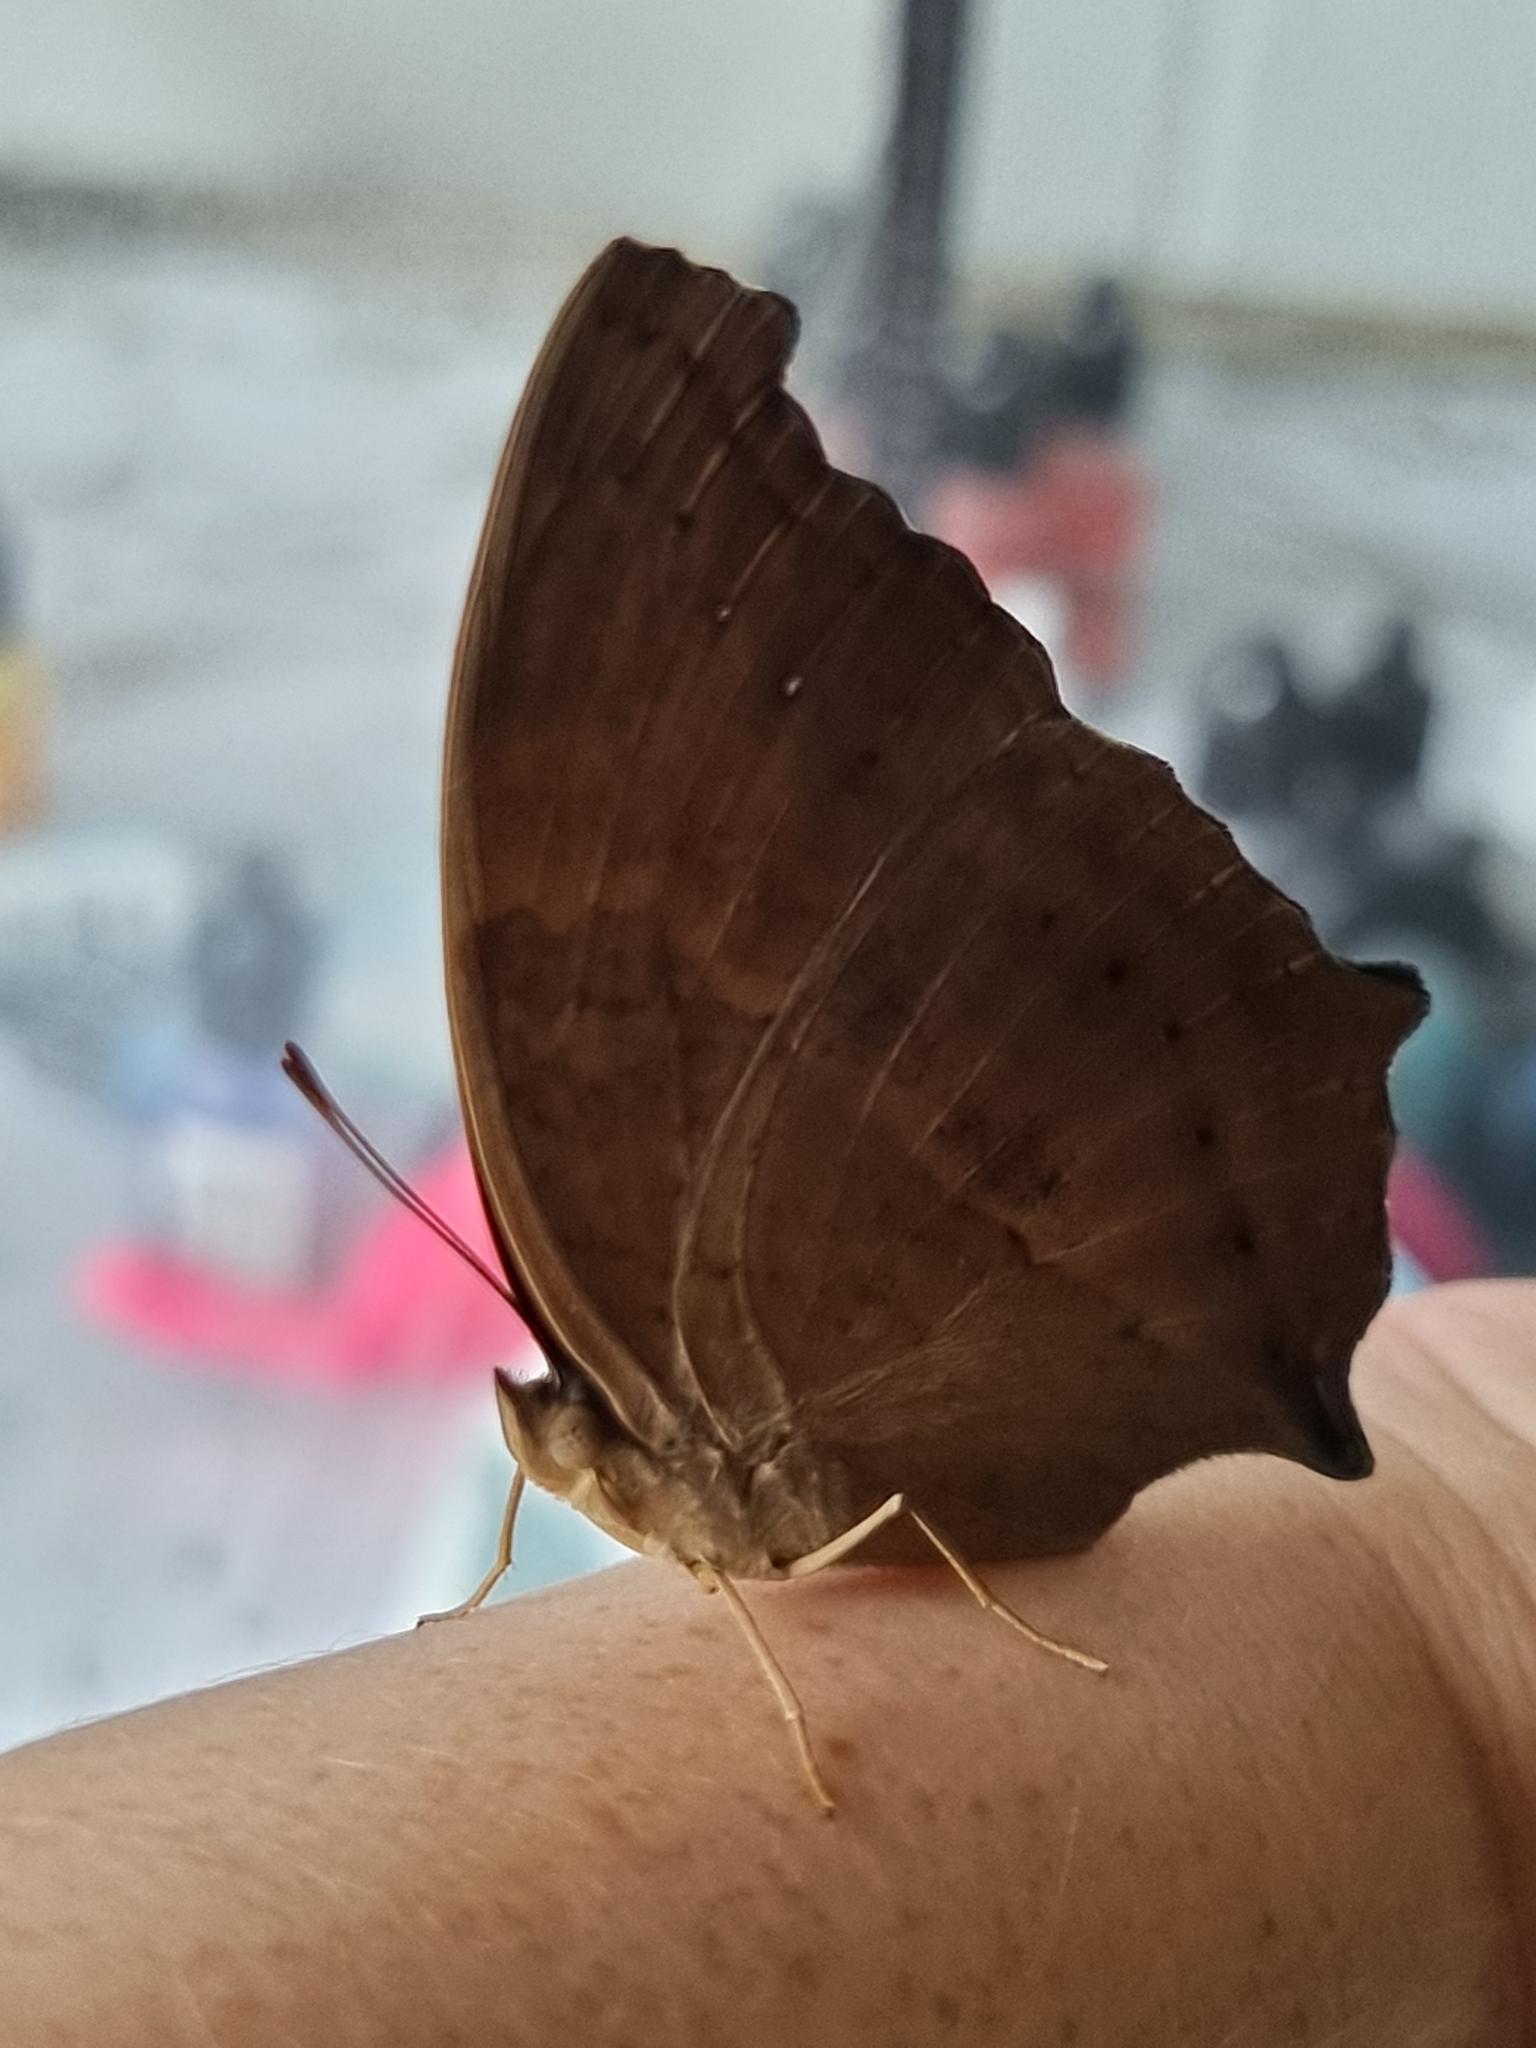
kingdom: Animalia
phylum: Arthropoda
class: Insecta
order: Lepidoptera
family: Nymphalidae
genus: Yoma
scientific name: Yoma sabina
